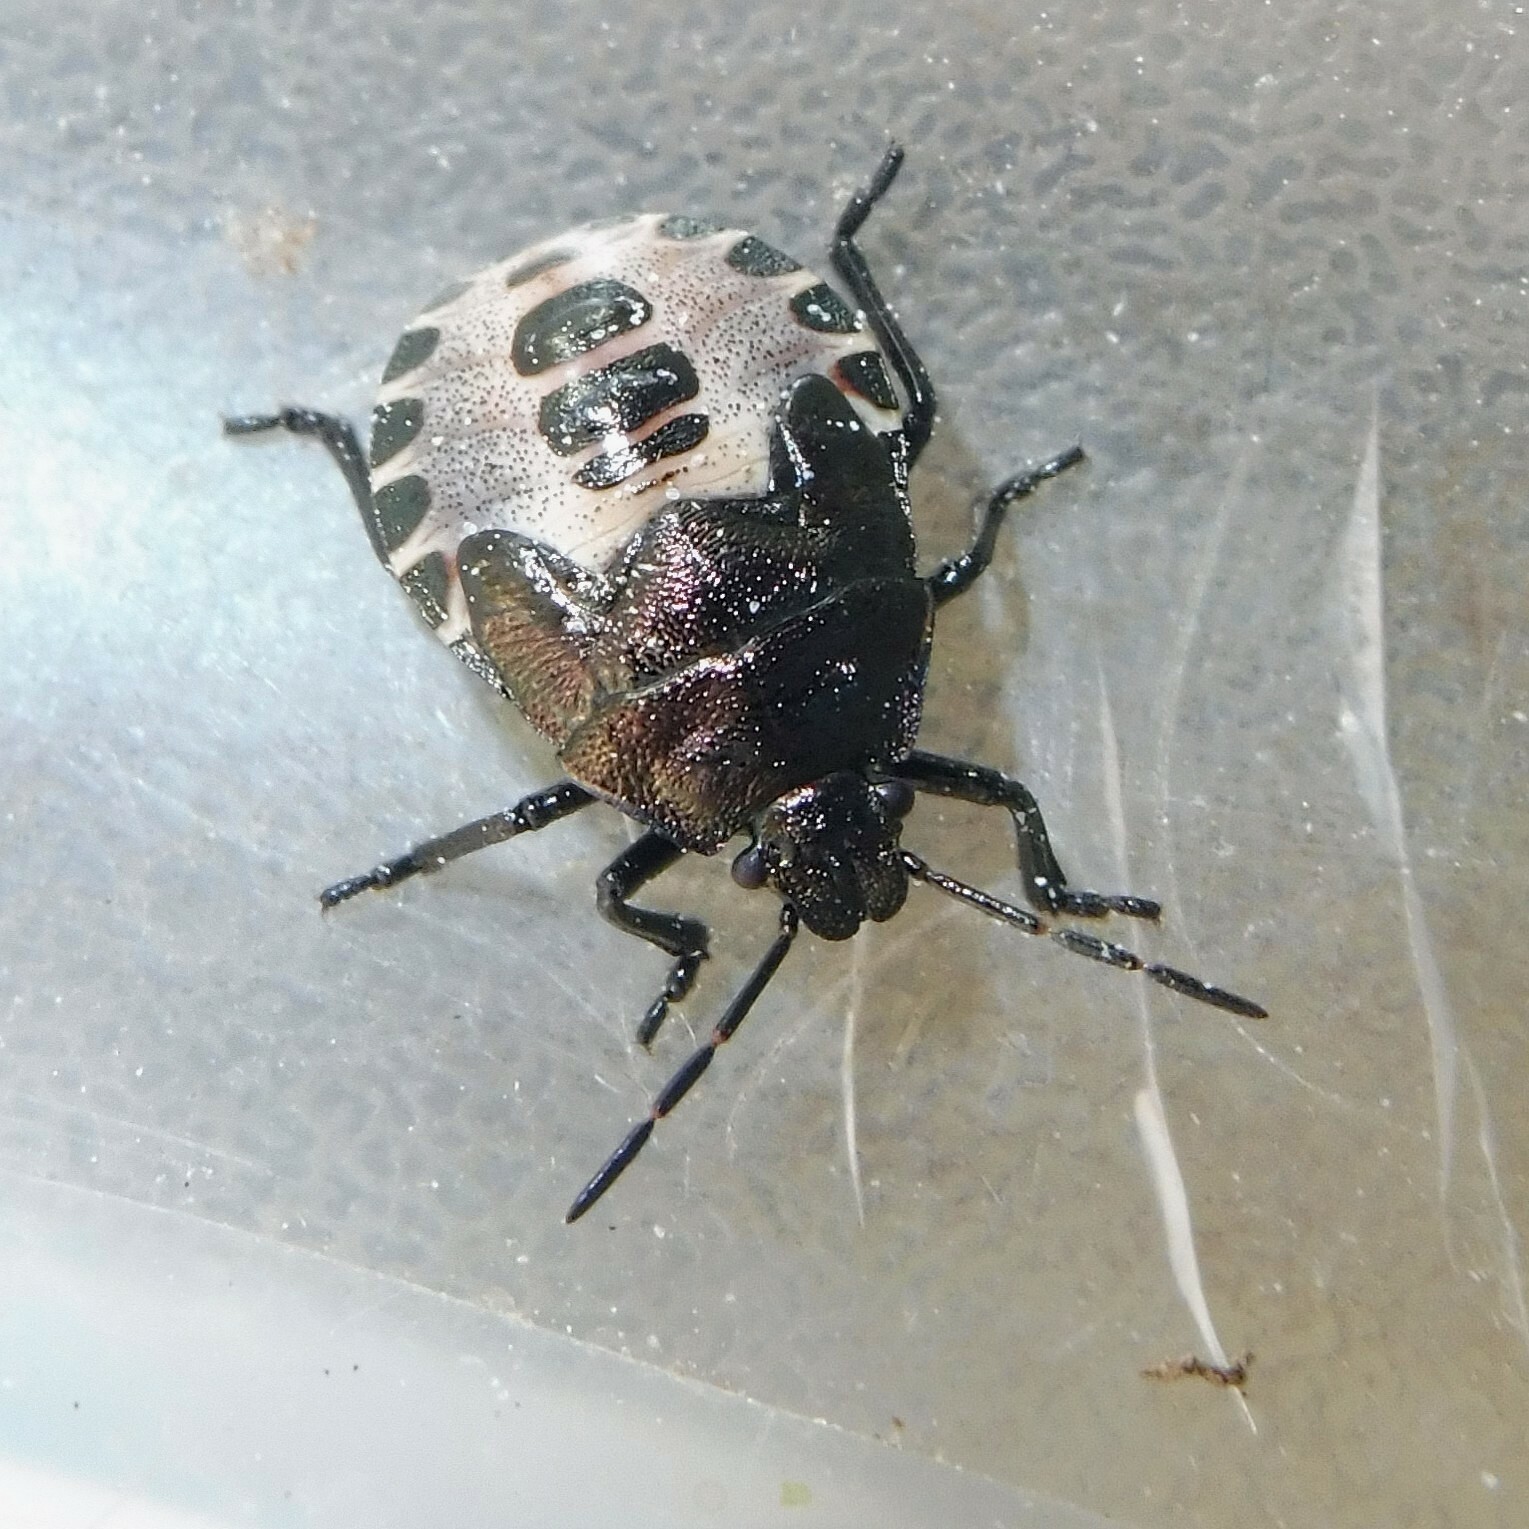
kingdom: Animalia
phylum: Arthropoda
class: Insecta
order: Hemiptera
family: Pentatomidae
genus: Rhacognathus
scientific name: Rhacognathus punctatus
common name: Heather bug
